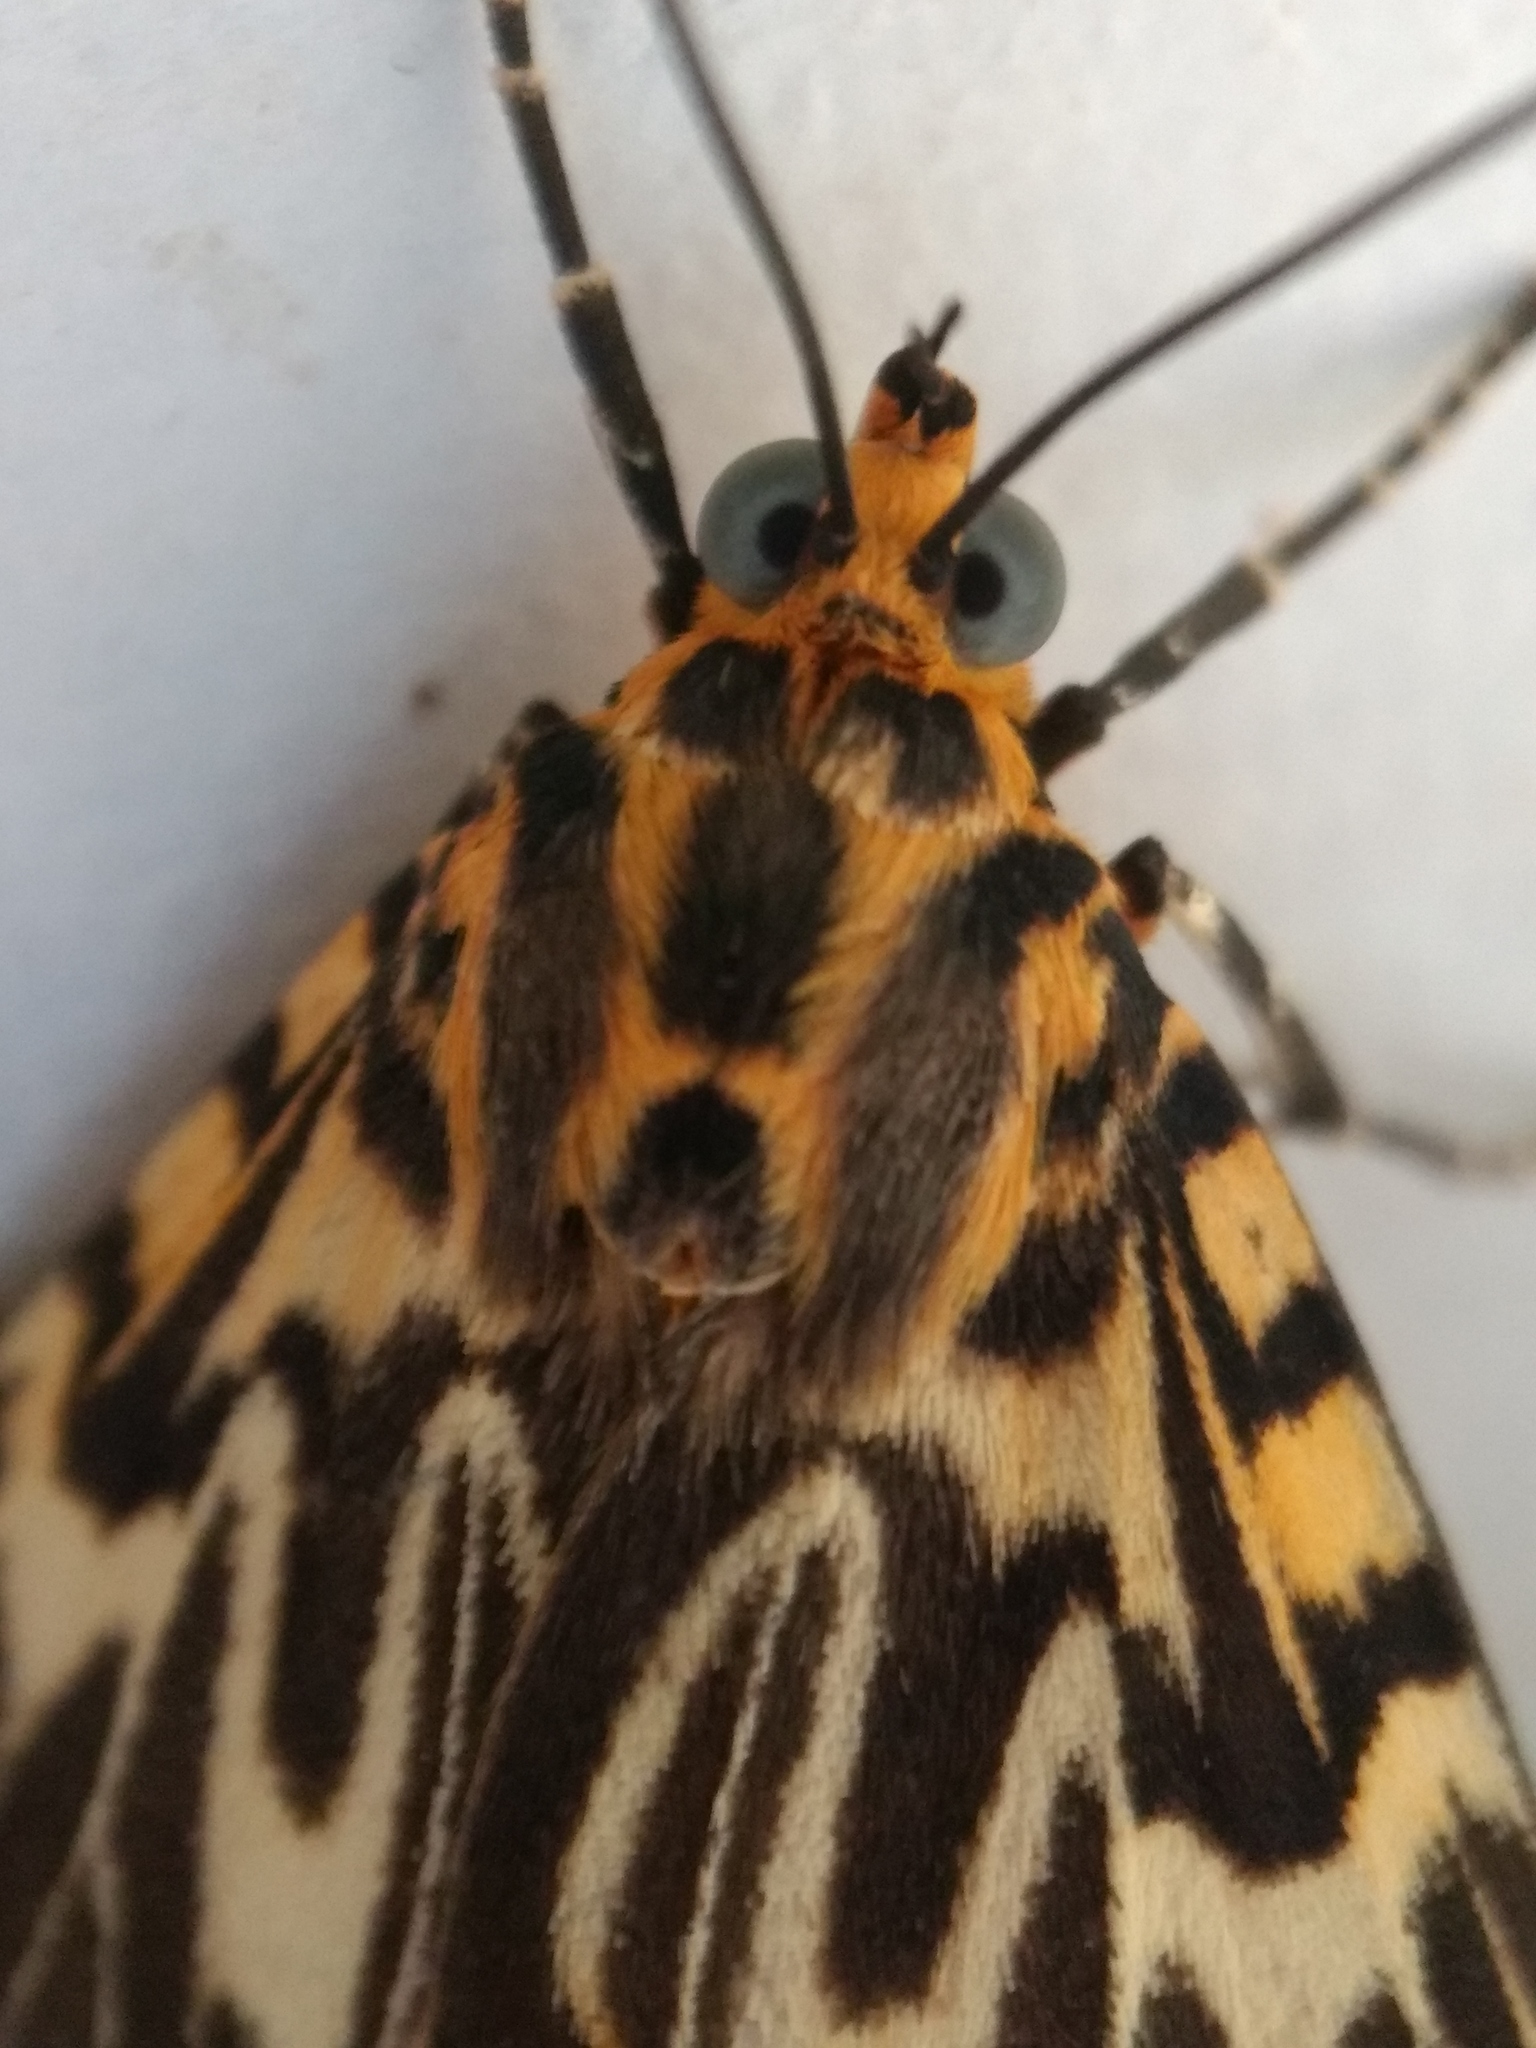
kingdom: Animalia
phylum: Arthropoda
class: Insecta
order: Lepidoptera
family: Erebidae
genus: Asota
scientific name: Asota plagiata
